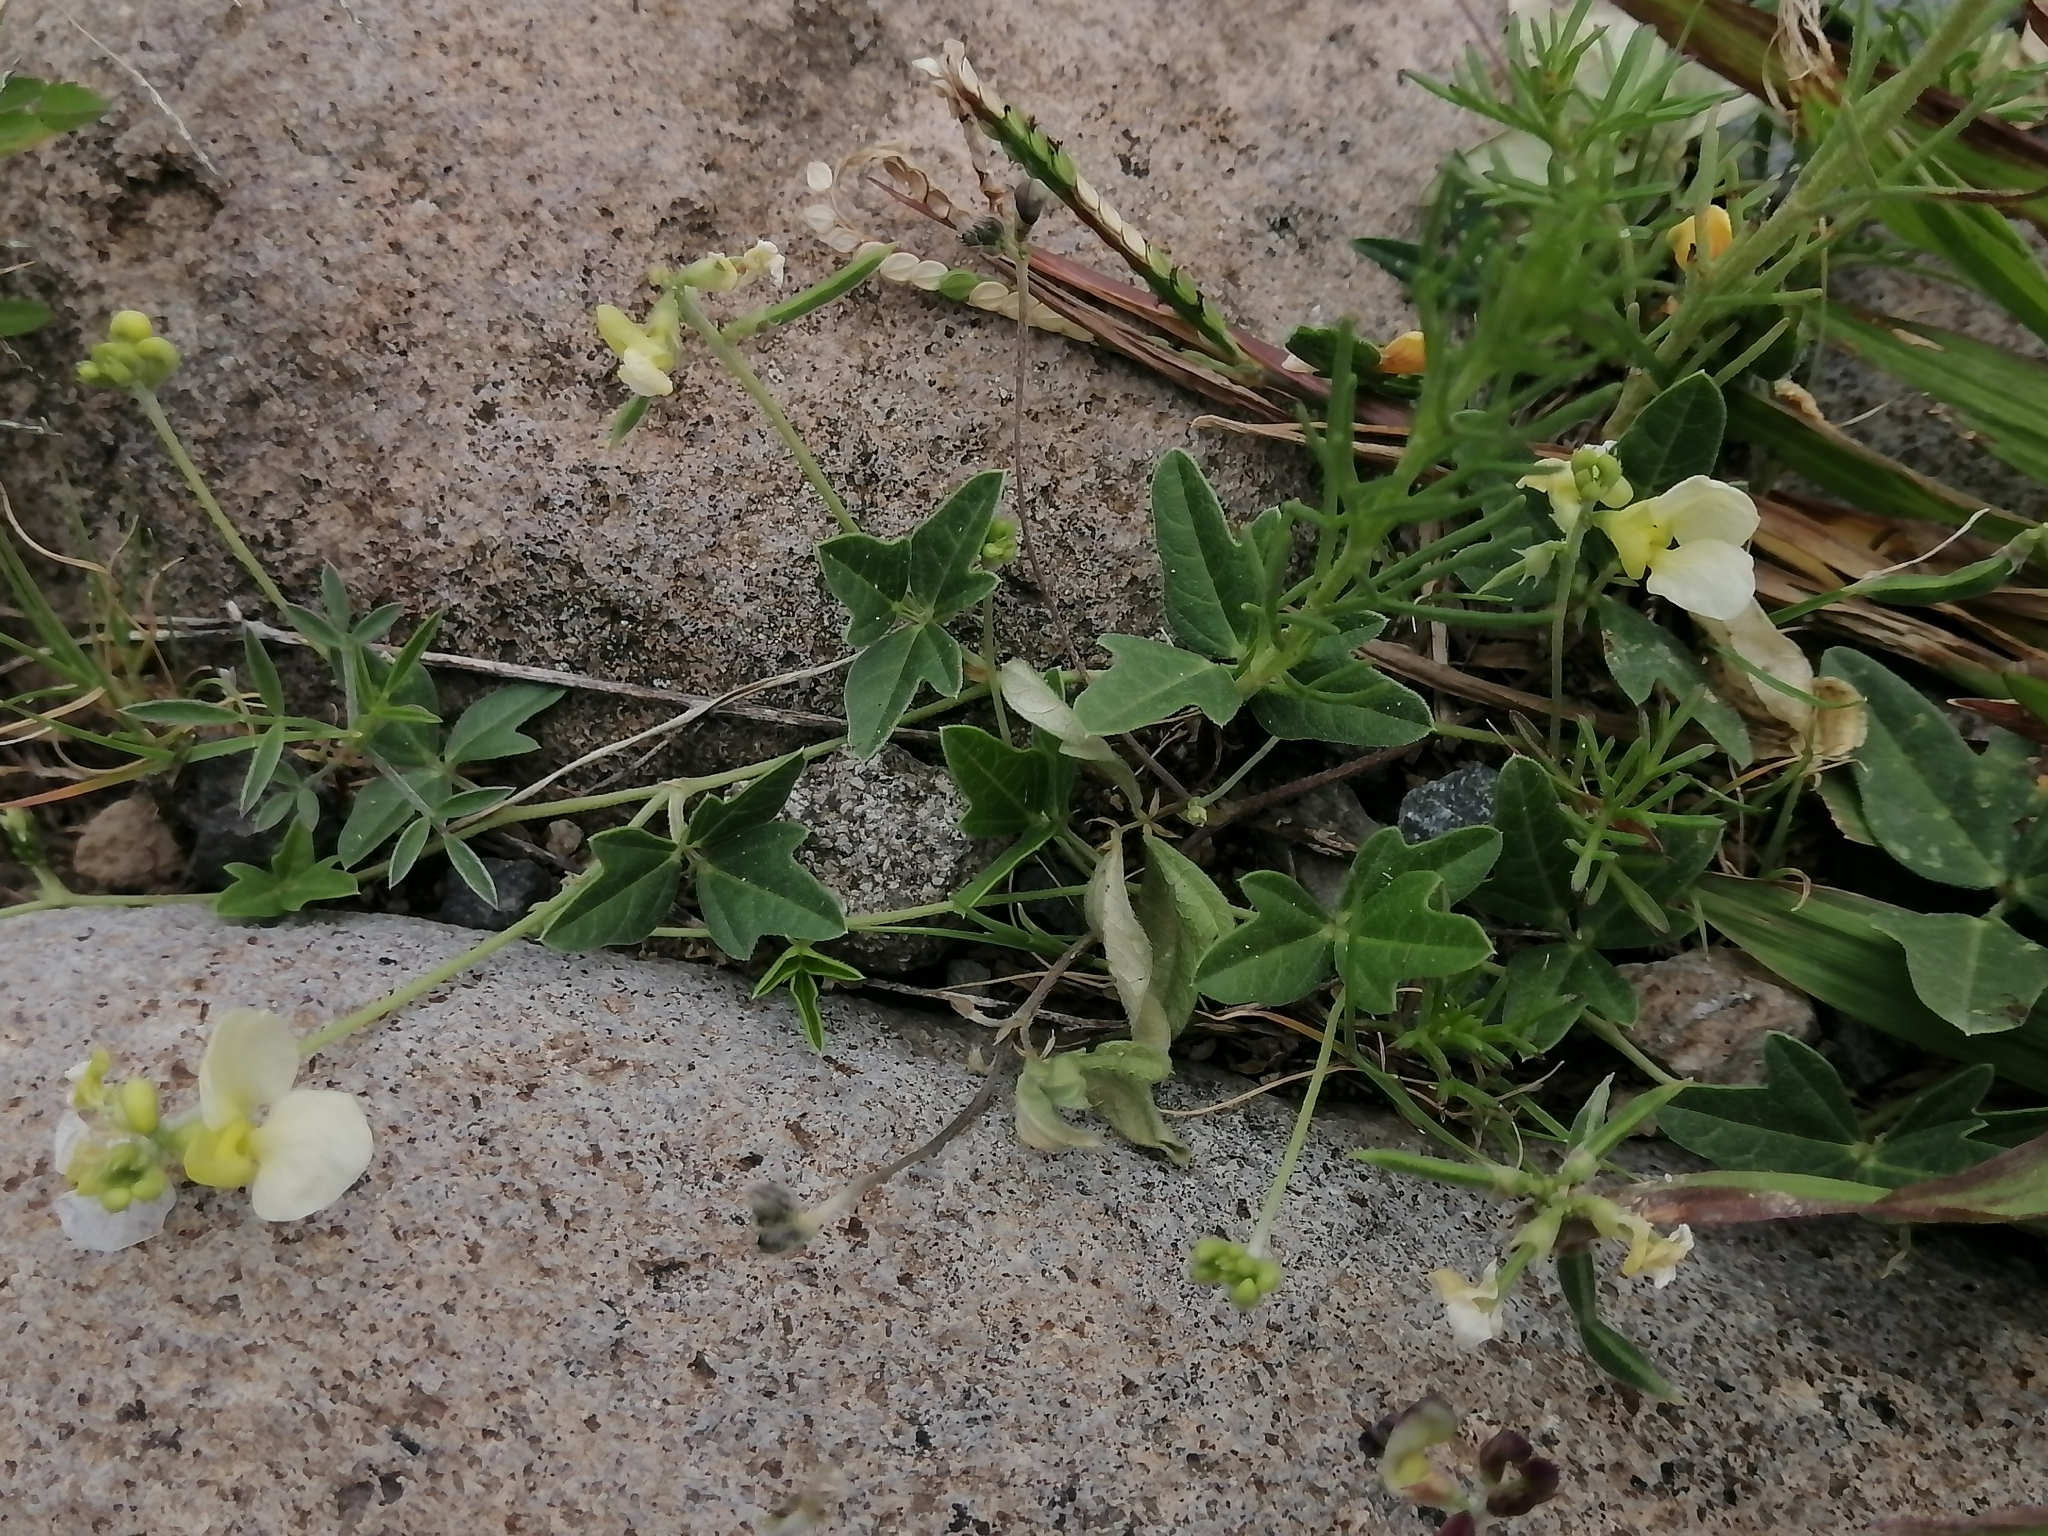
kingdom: Plantae
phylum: Tracheophyta
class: Magnoliopsida
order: Fabales
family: Fabaceae
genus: Macroptilium
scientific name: Macroptilium gibbosifolium
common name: Variableleaf bushbean
